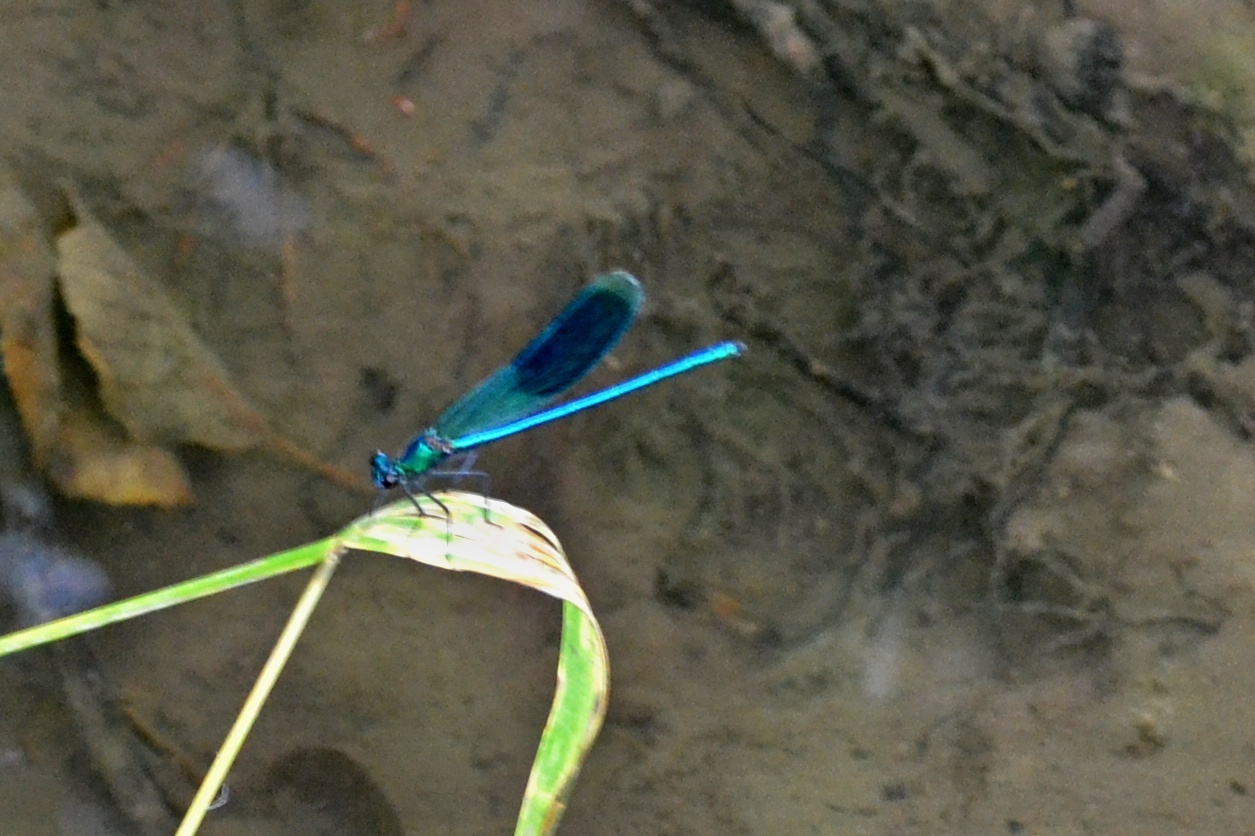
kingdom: Animalia
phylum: Arthropoda
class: Insecta
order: Odonata
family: Calopterygidae
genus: Calopteryx
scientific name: Calopteryx splendens
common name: Banded demoiselle
